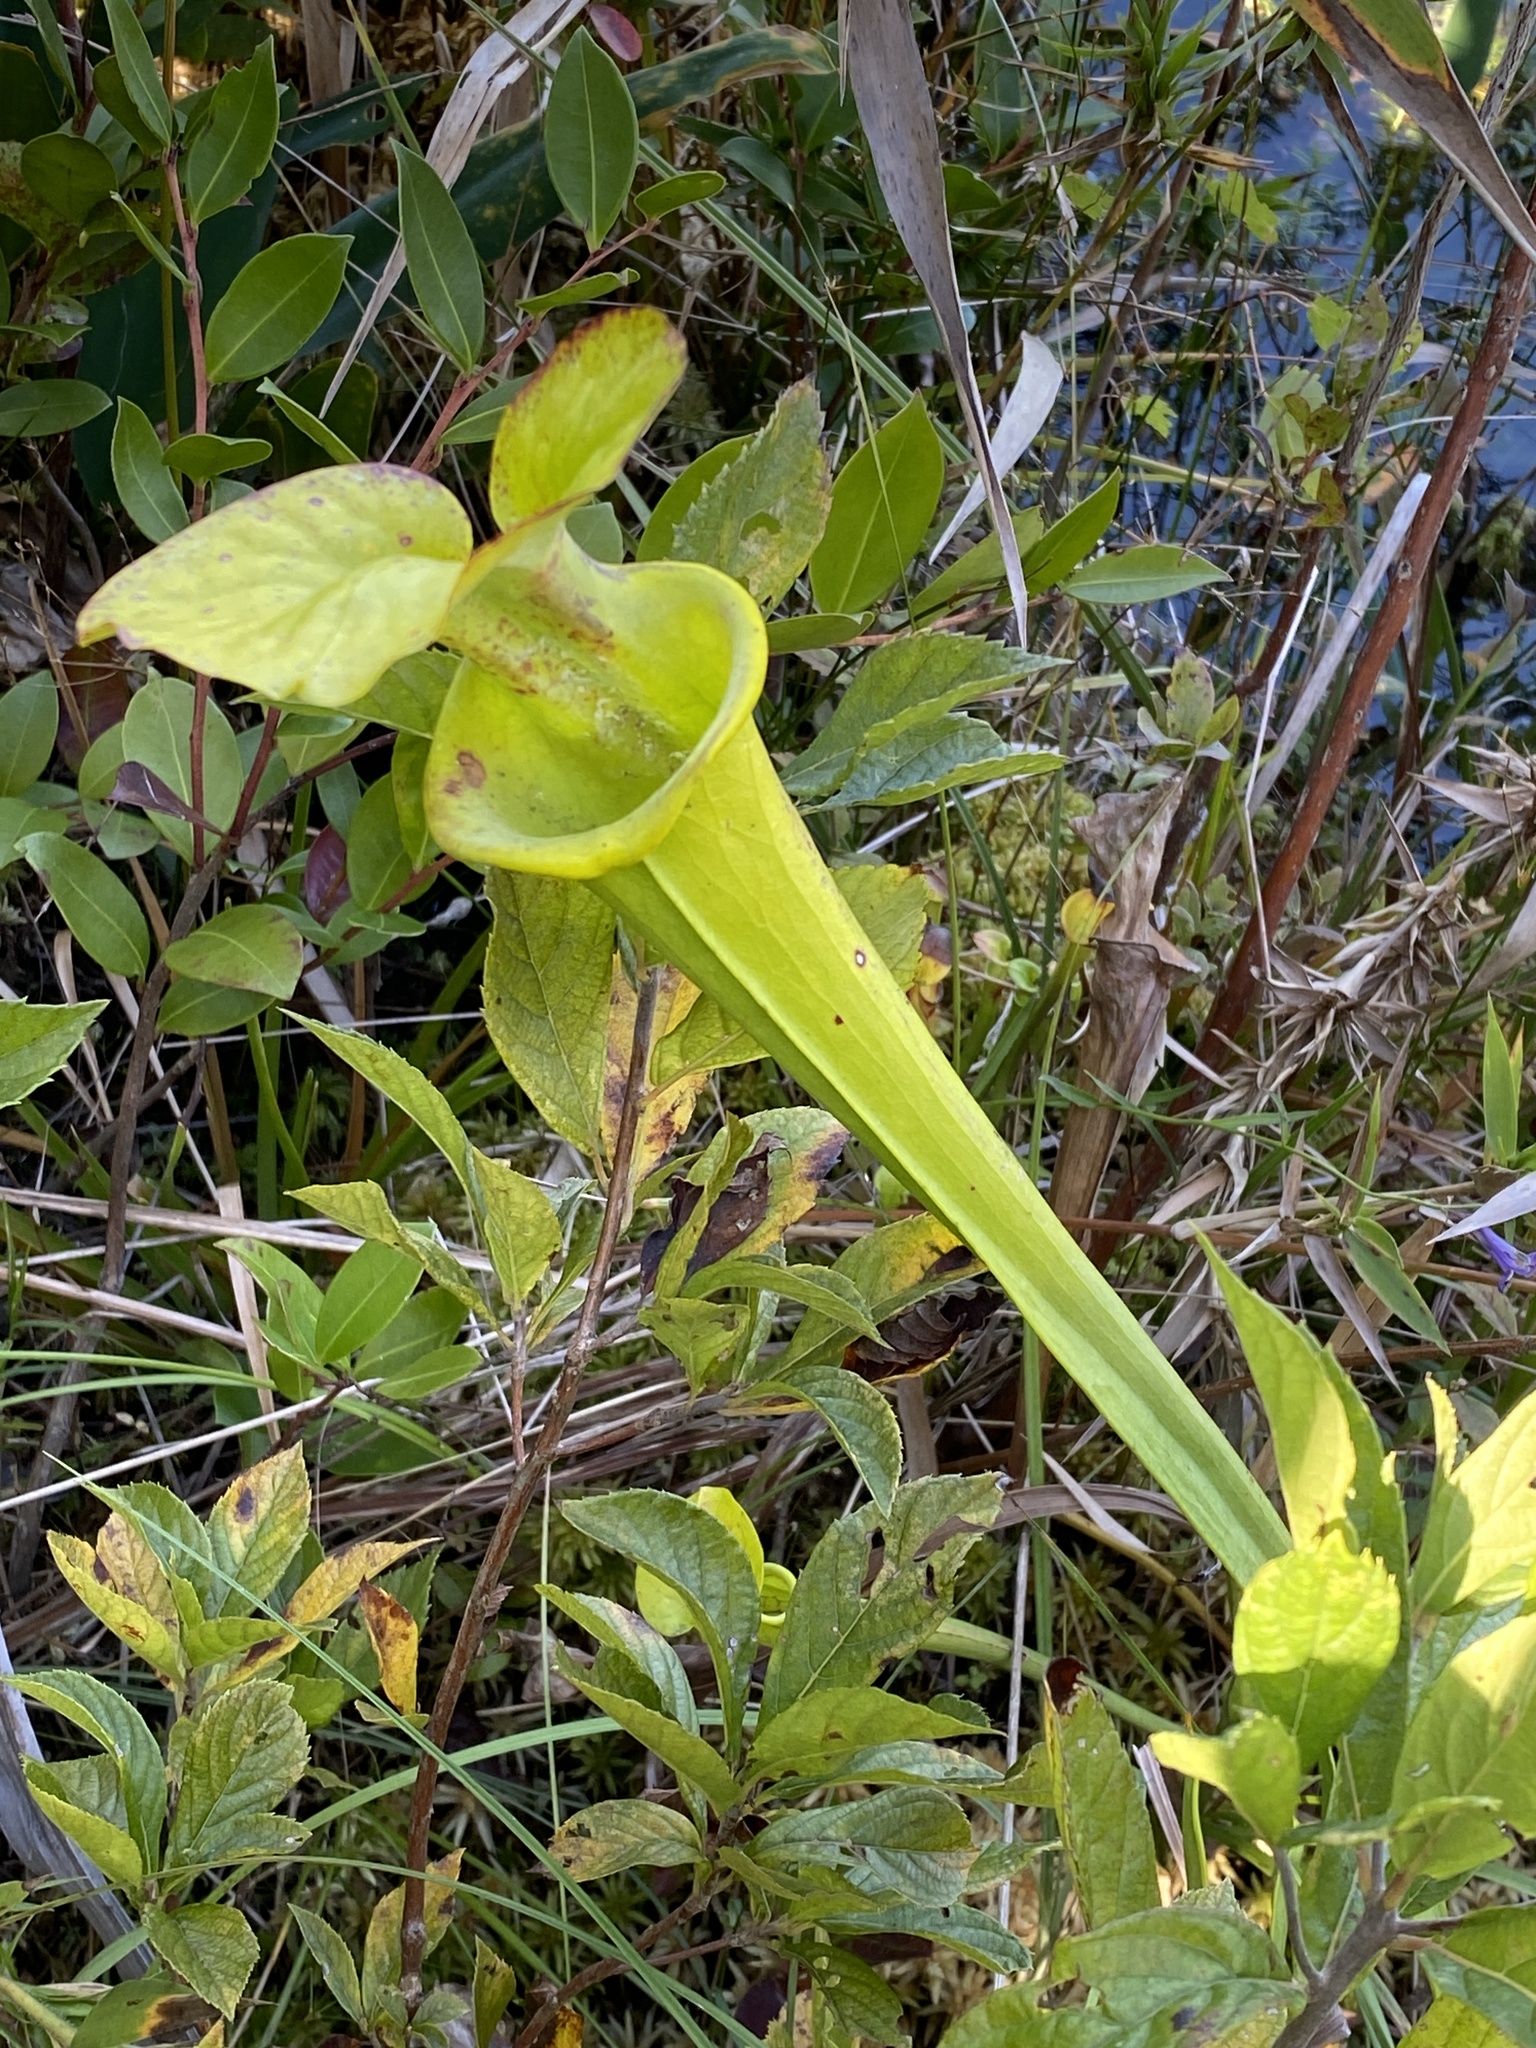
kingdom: Plantae
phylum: Tracheophyta
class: Magnoliopsida
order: Ericales
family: Sarraceniaceae
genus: Sarracenia
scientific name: Sarracenia flava
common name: Trumpets
